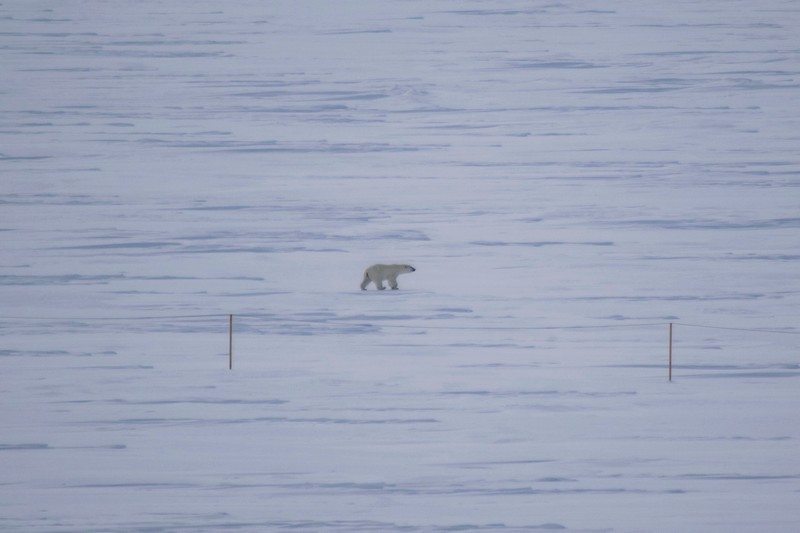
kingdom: Animalia
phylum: Chordata
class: Mammalia
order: Carnivora
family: Ursidae
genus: Ursus
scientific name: Ursus maritimus
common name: Polar bear
